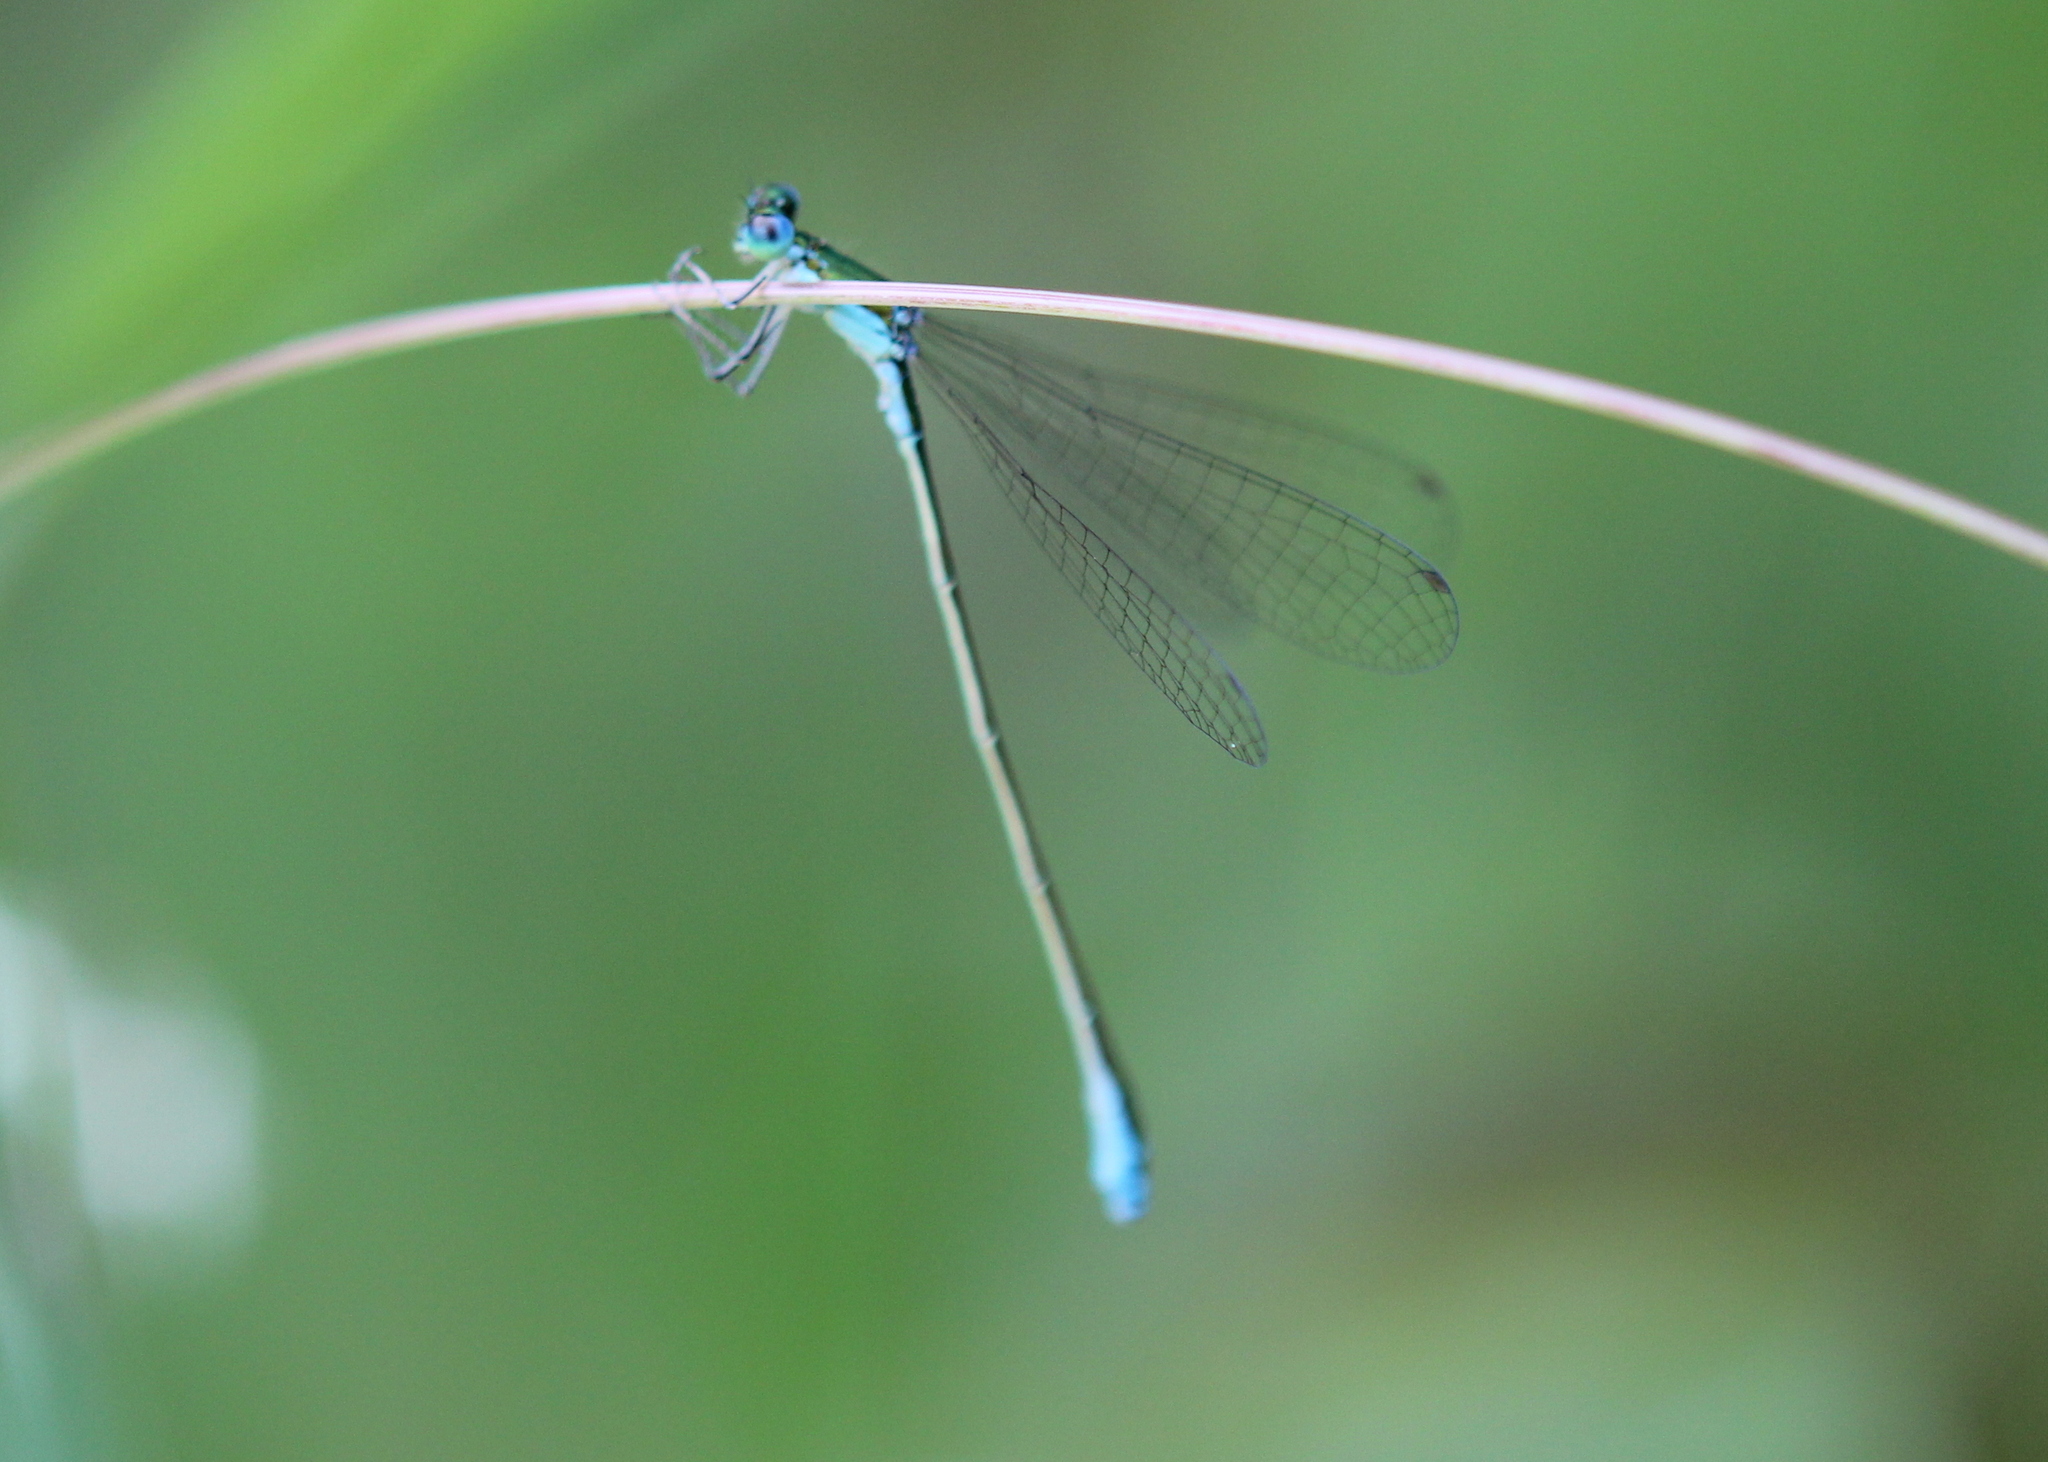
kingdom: Animalia
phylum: Arthropoda
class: Insecta
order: Odonata
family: Coenagrionidae
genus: Nehalennia
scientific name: Nehalennia irene
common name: Sedge sprite
